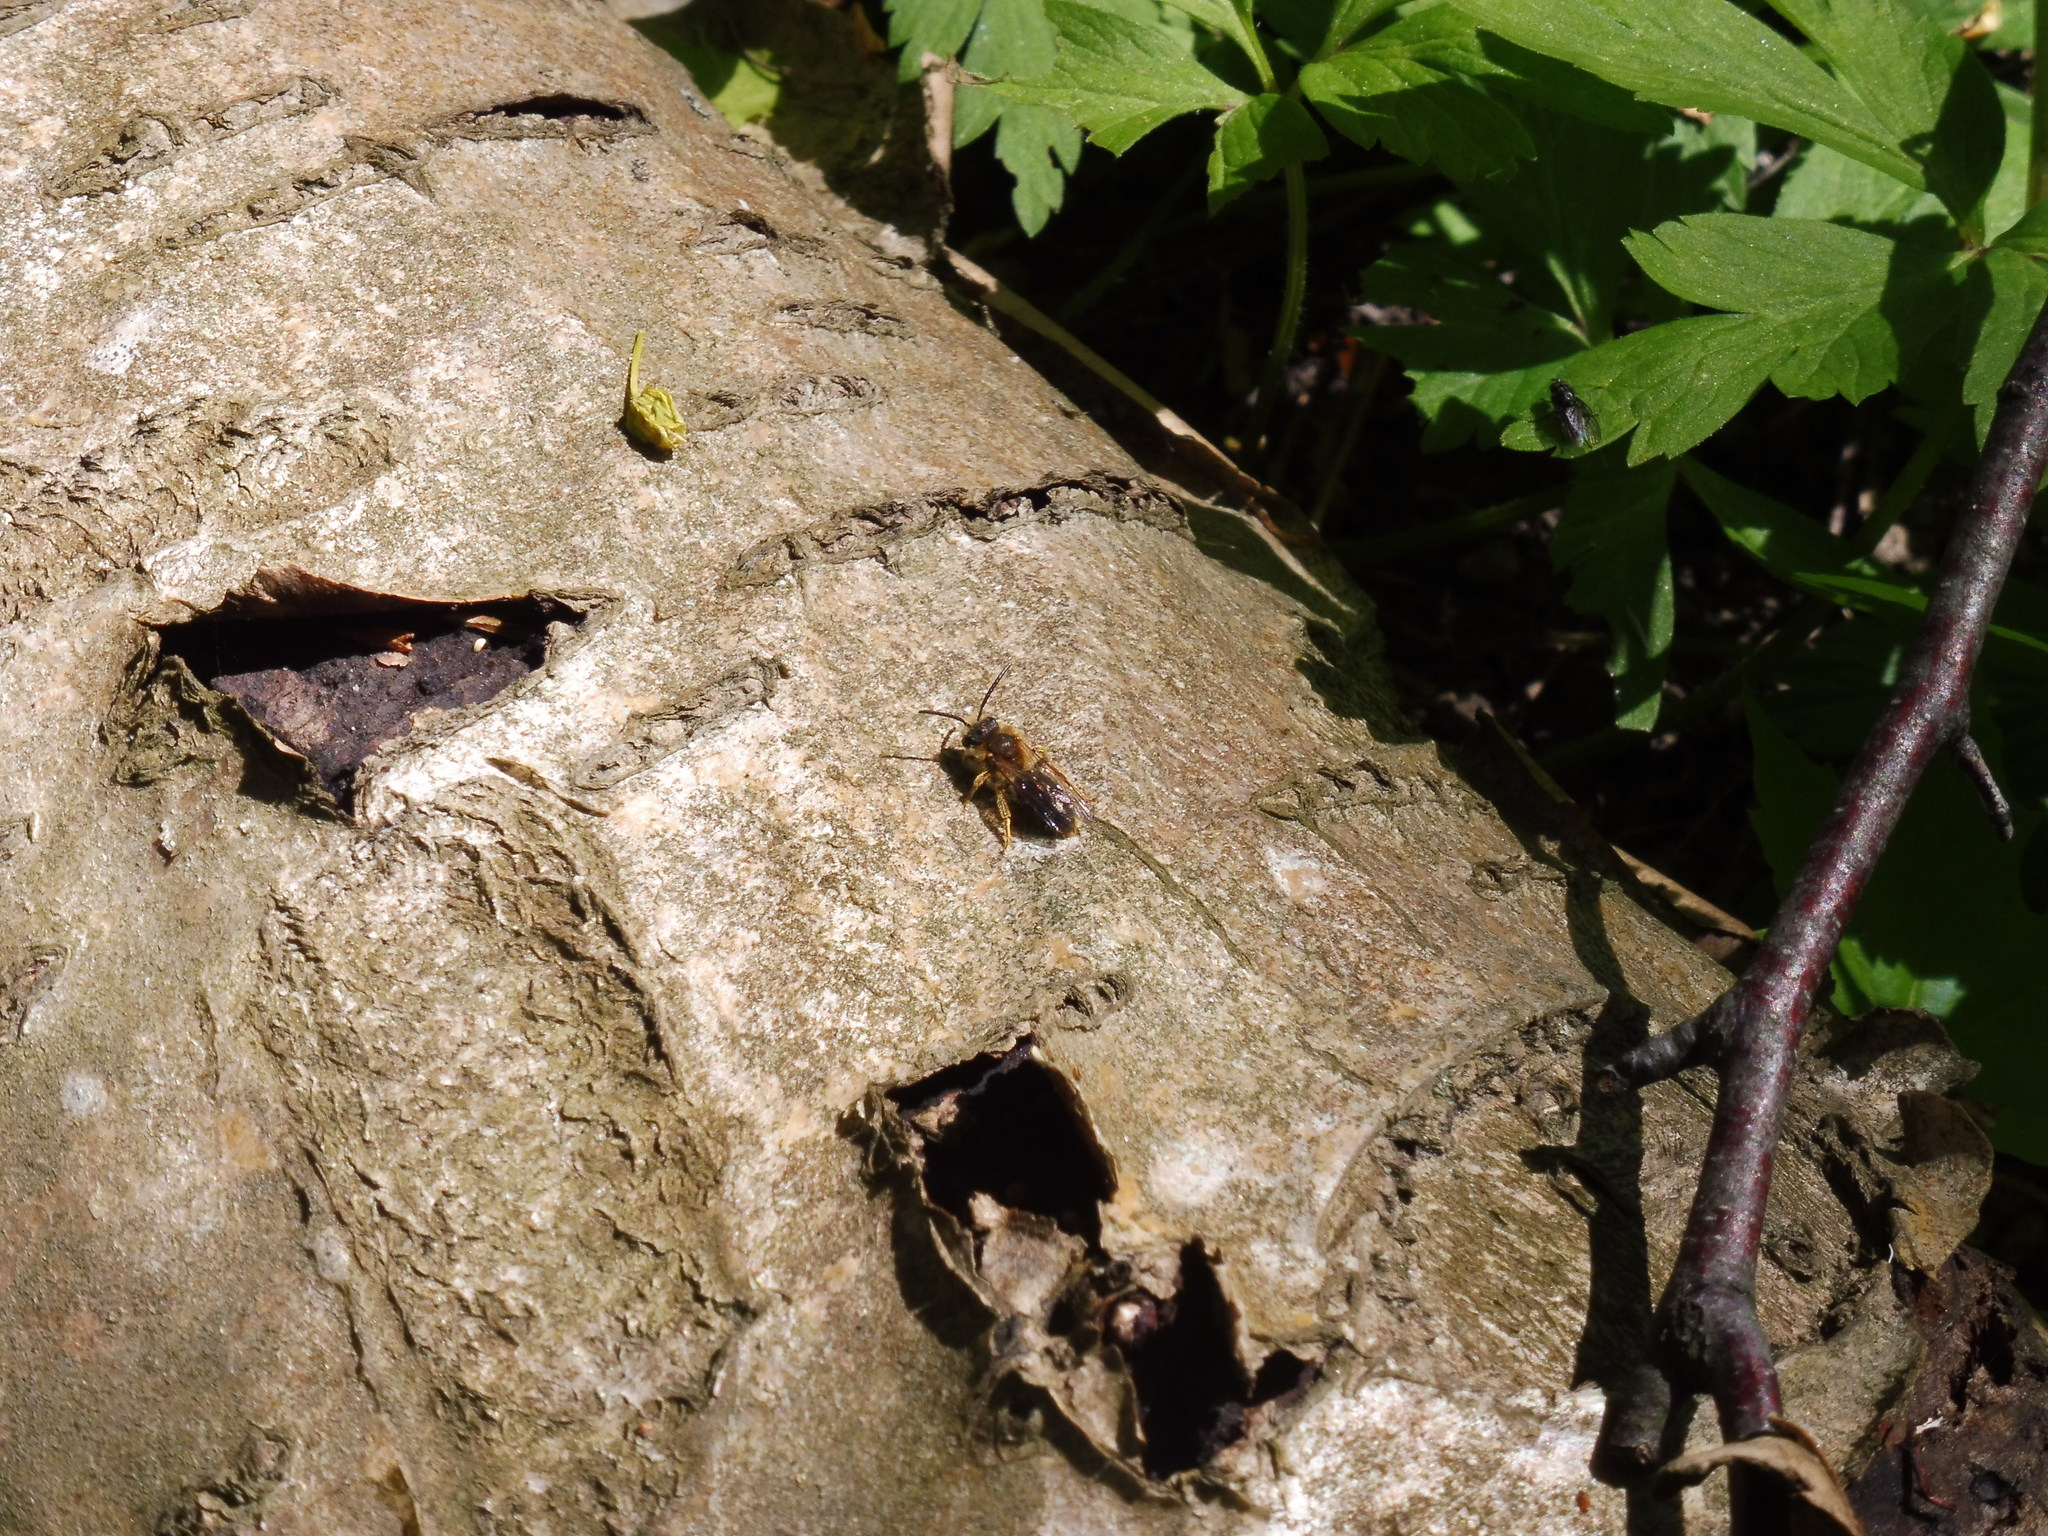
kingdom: Animalia
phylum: Arthropoda
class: Insecta
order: Hymenoptera
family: Andrenidae
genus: Andrena
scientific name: Andrena haemorrhoa
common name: Early mining bee
